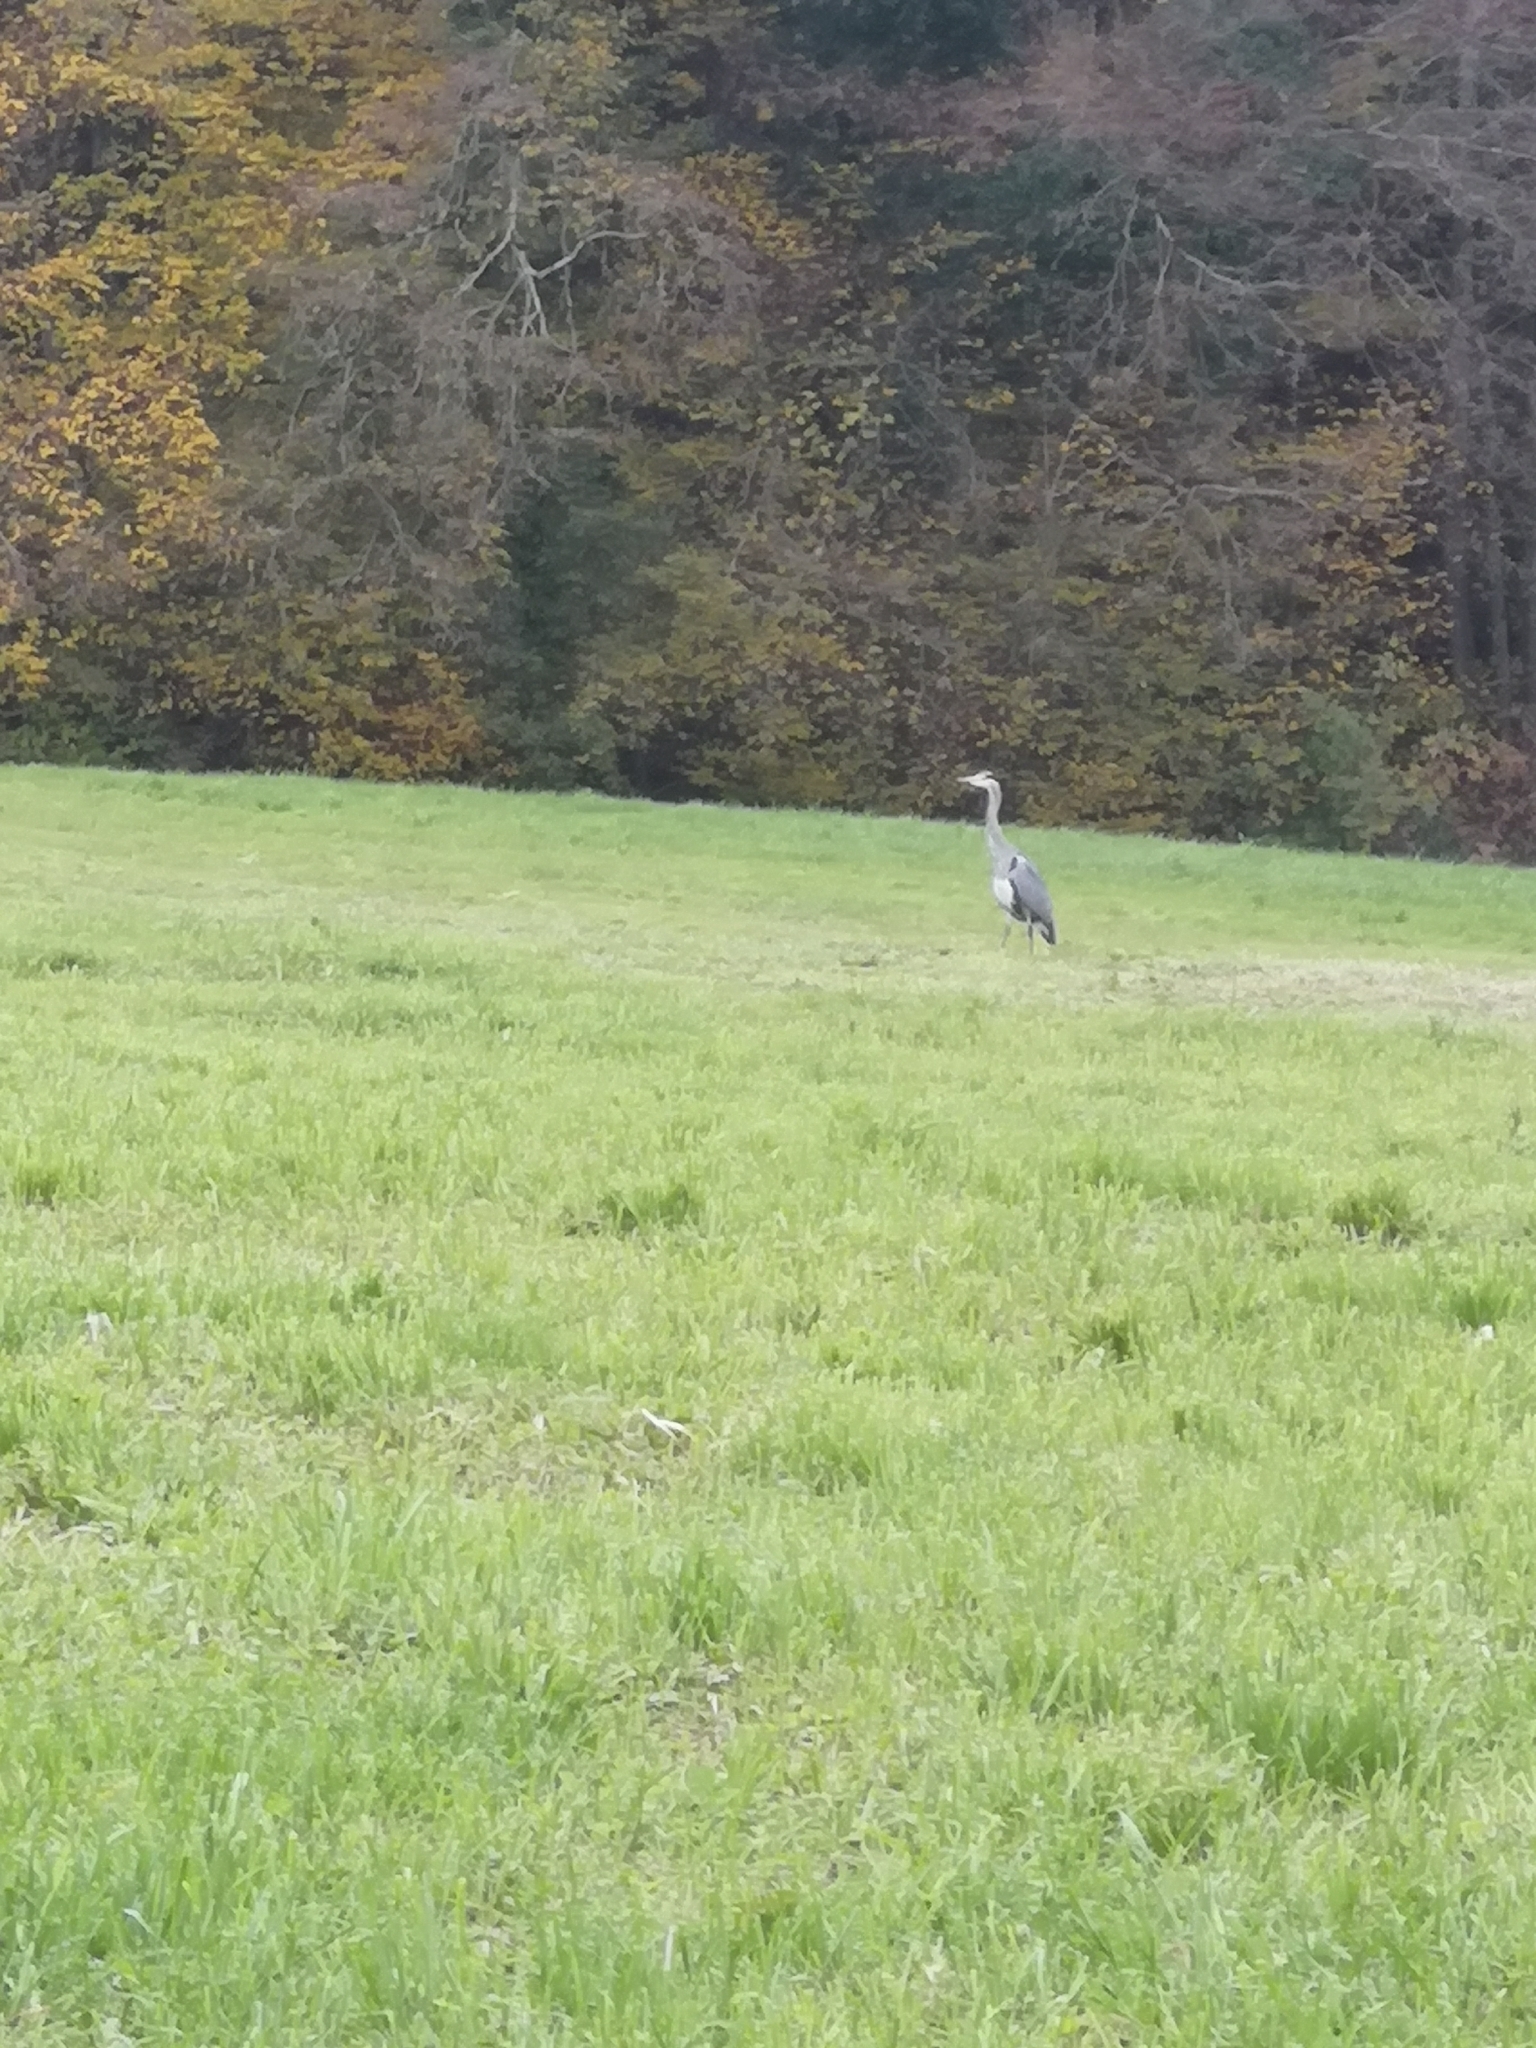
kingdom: Animalia
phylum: Chordata
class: Aves
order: Pelecaniformes
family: Ardeidae
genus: Ardea
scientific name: Ardea cinerea
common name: Grey heron
